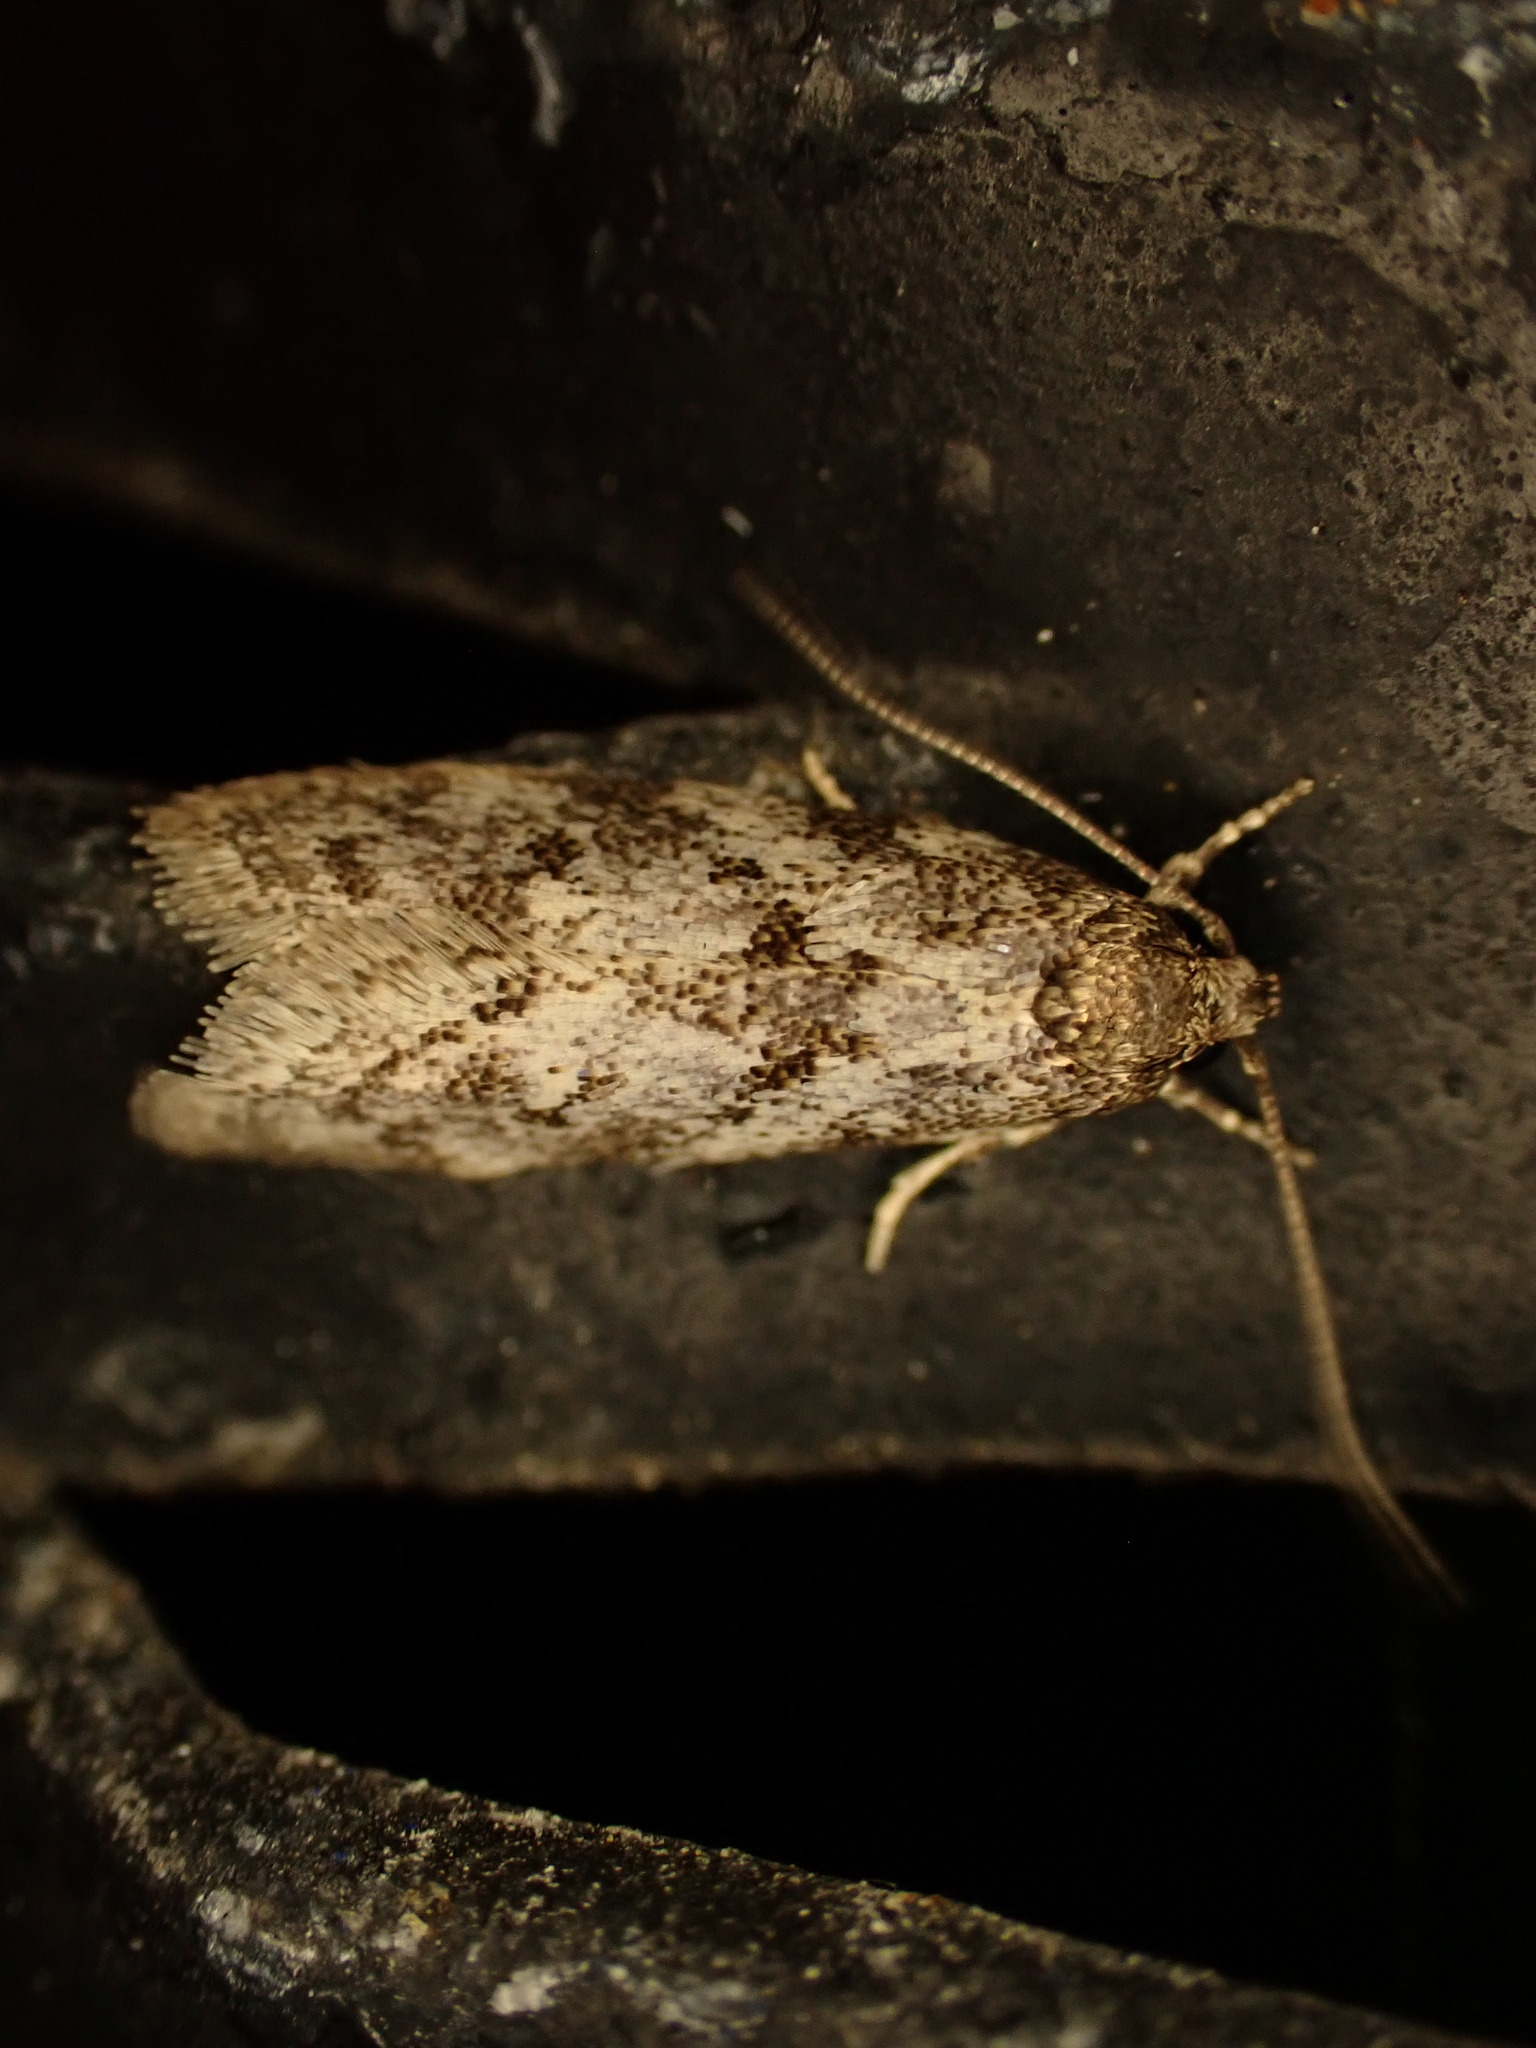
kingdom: Animalia
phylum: Arthropoda
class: Insecta
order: Lepidoptera
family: Oecophoridae
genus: Tingena
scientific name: Tingena clarkei
